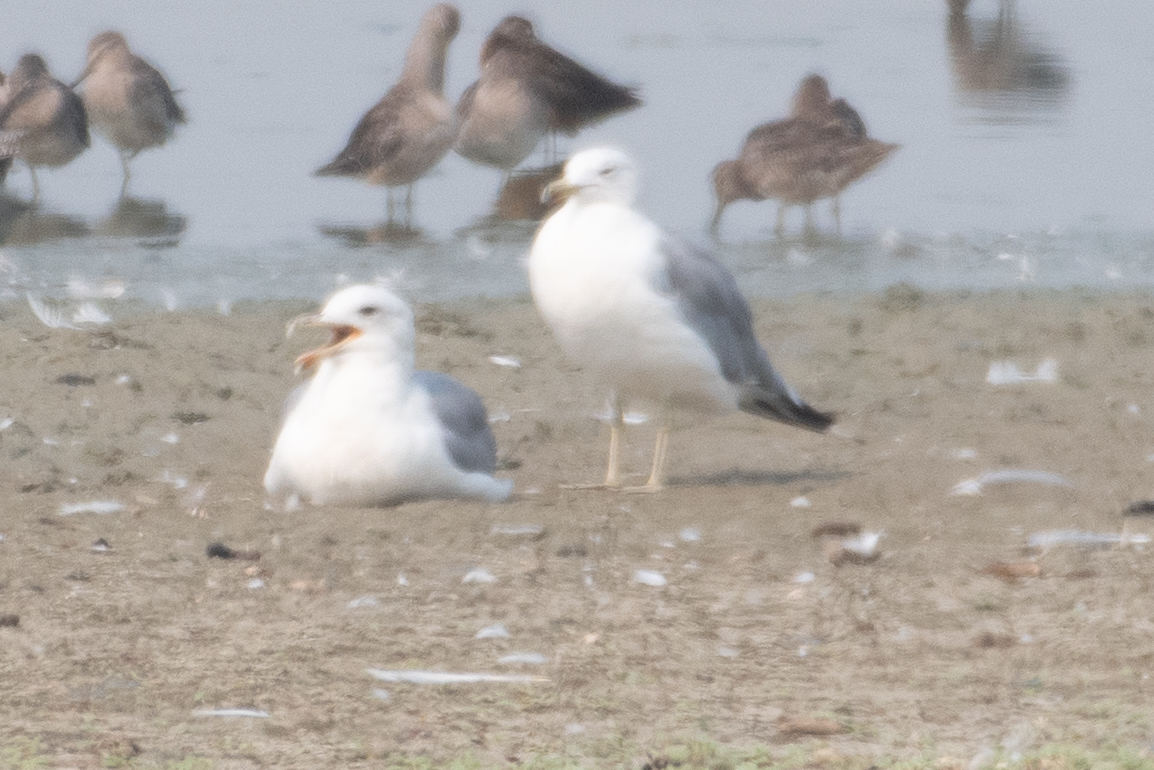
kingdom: Animalia
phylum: Chordata
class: Aves
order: Charadriiformes
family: Laridae
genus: Larus
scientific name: Larus californicus
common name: California gull
